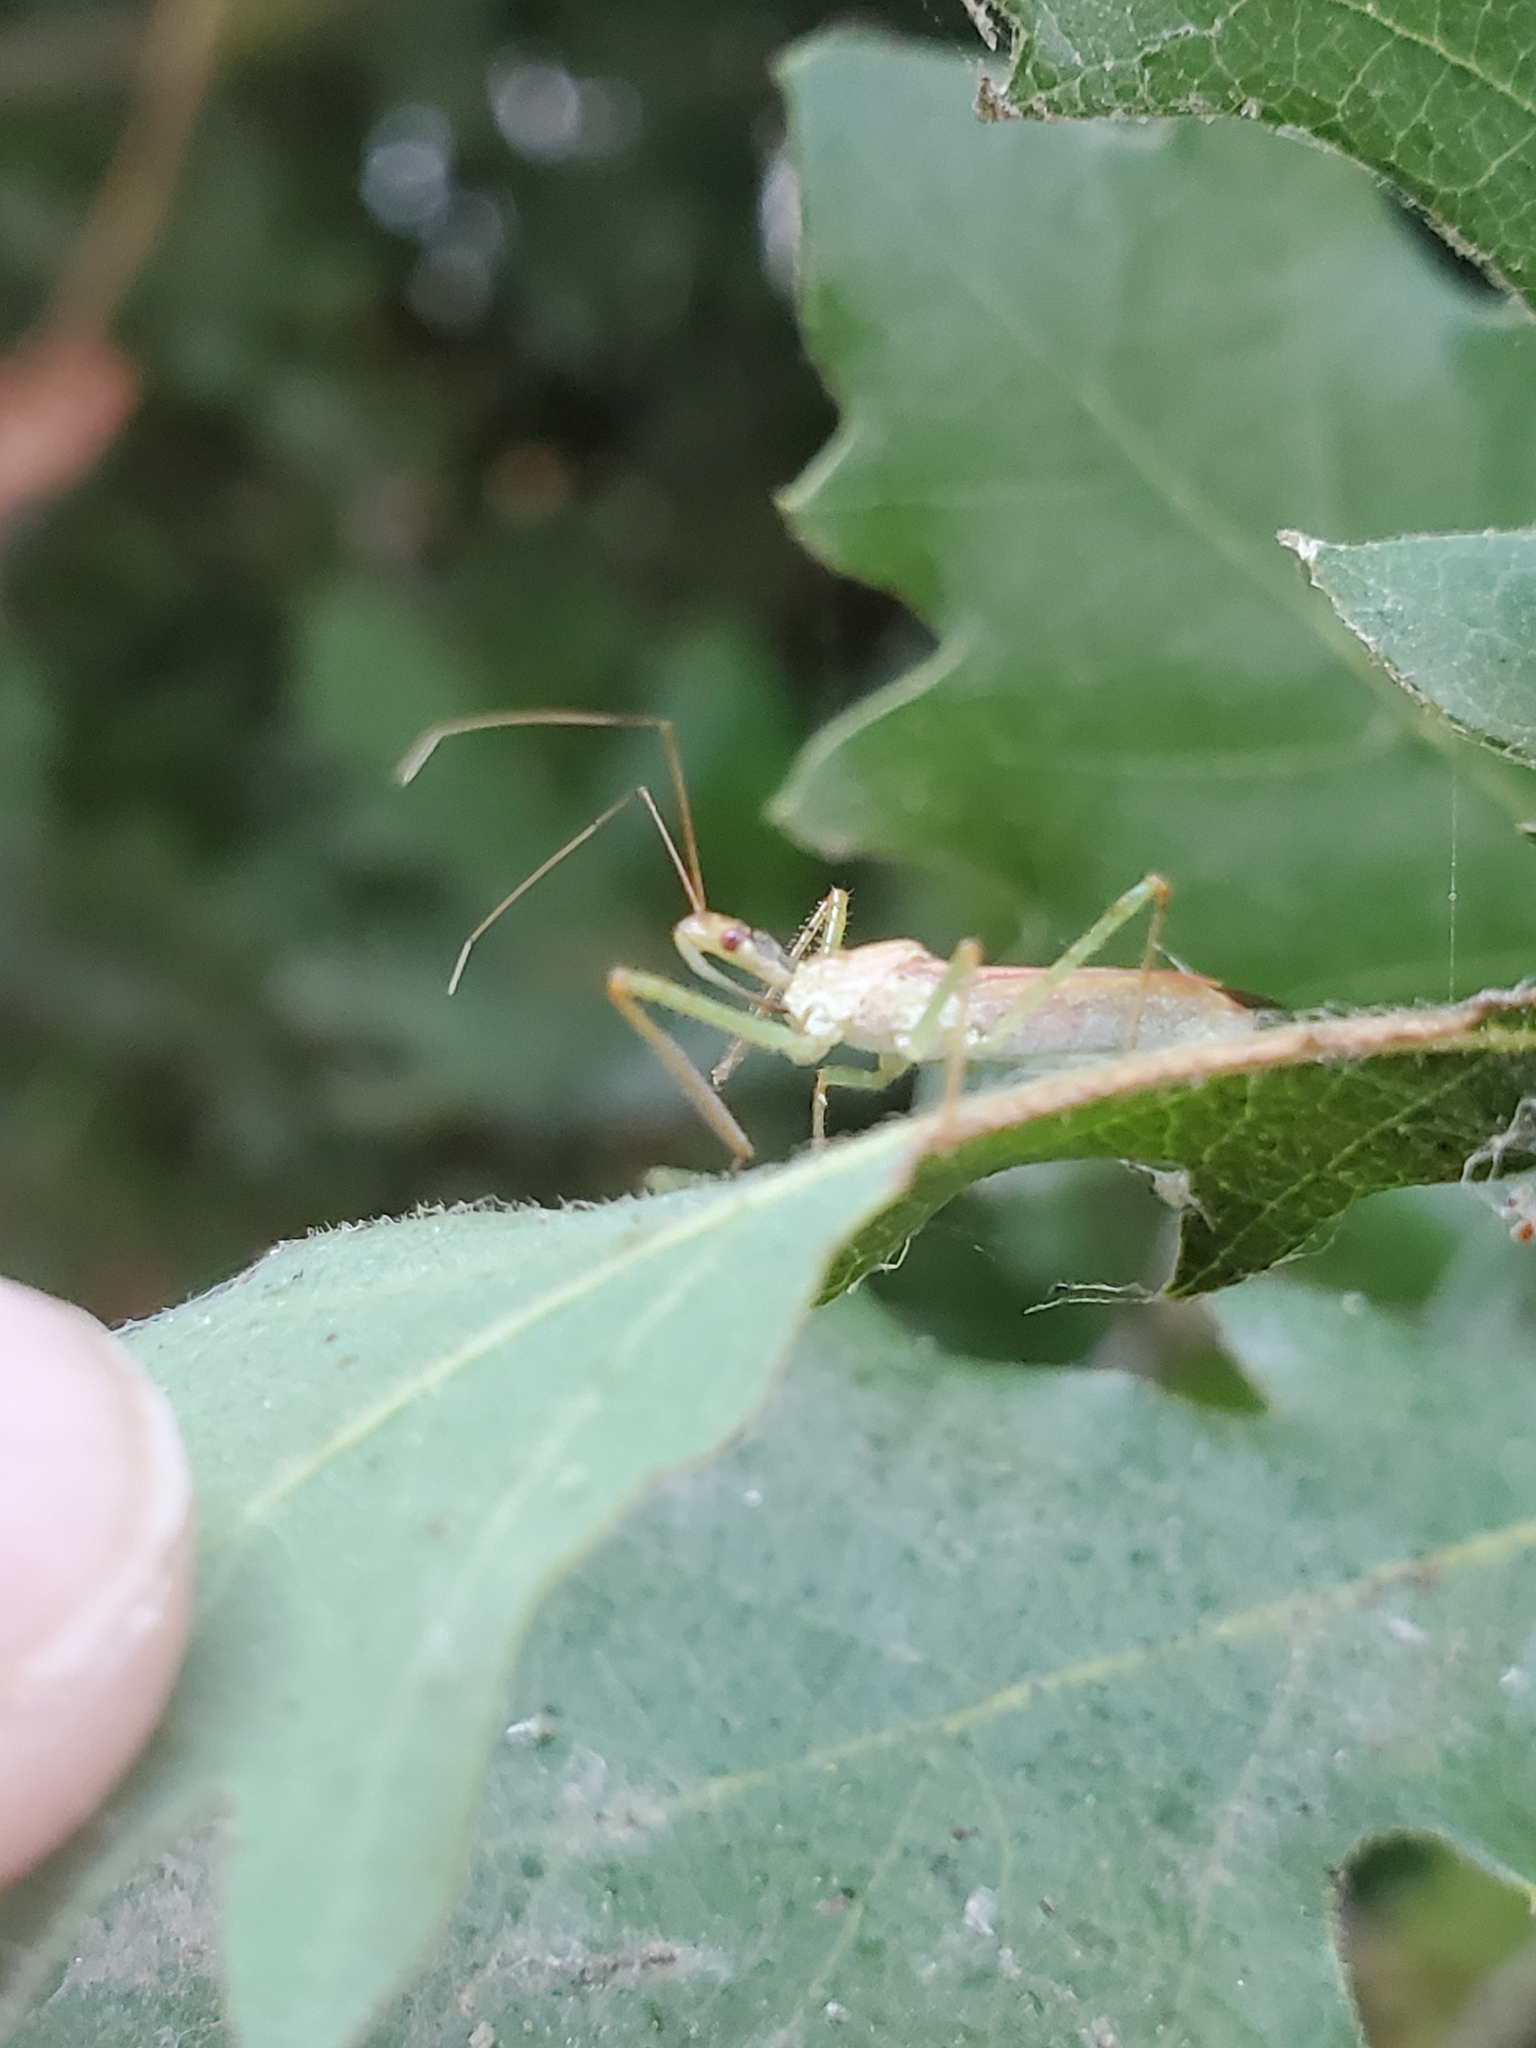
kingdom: Animalia
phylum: Arthropoda
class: Insecta
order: Hemiptera
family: Reduviidae
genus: Zelus
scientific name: Zelus renardii
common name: Assassin bug
